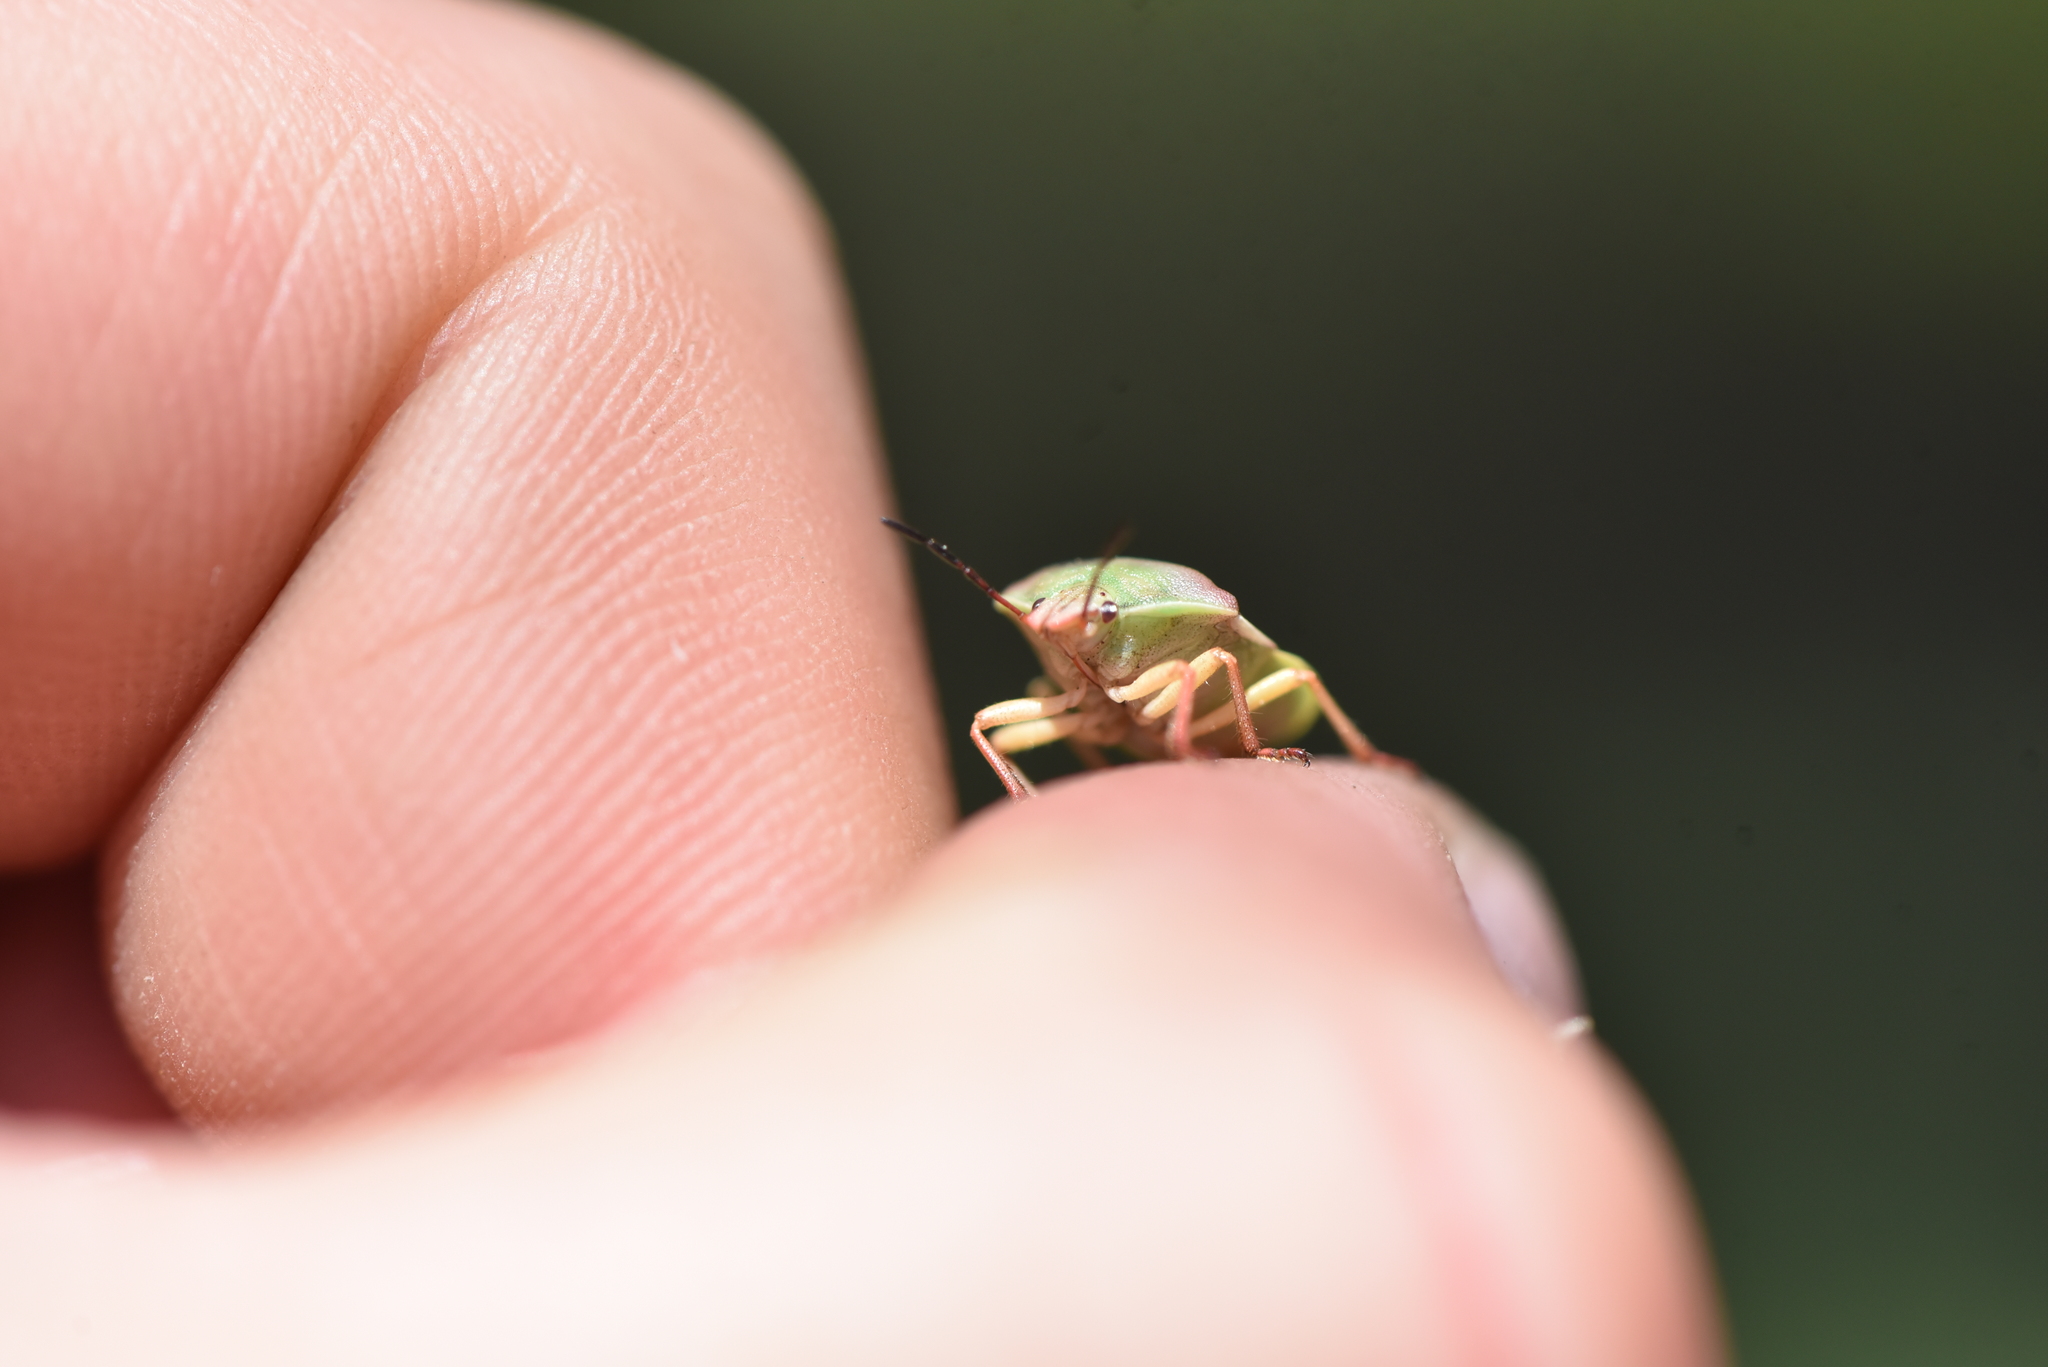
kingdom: Animalia
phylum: Arthropoda
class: Insecta
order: Hemiptera
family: Pentatomidae
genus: Antheminia
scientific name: Antheminia
